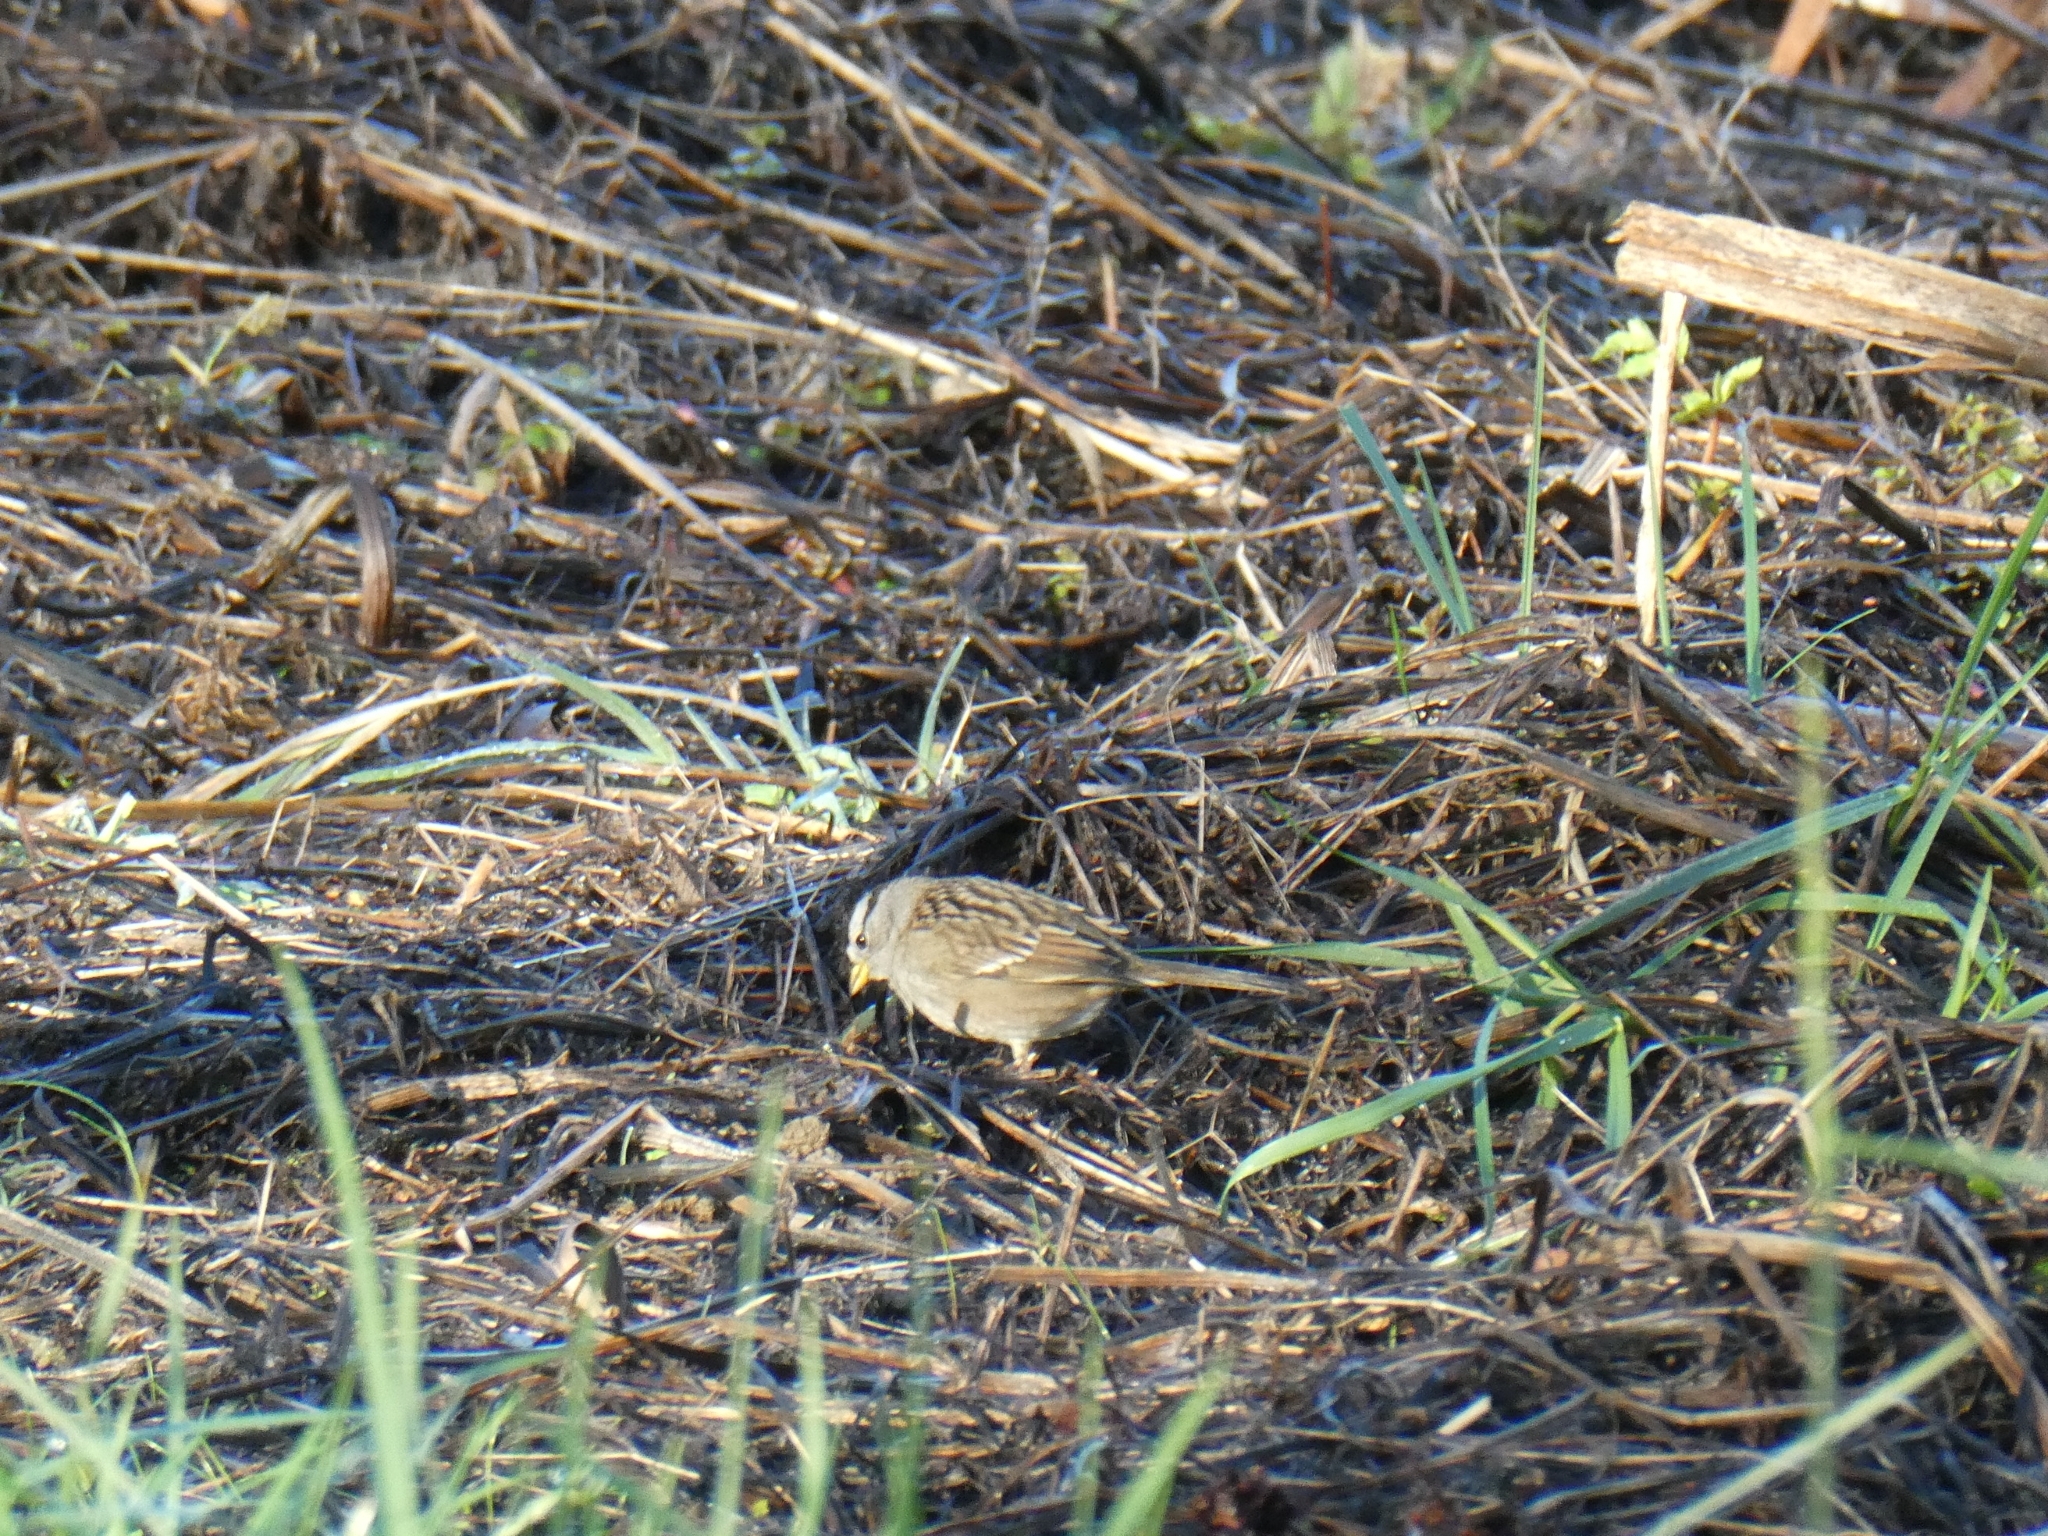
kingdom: Animalia
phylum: Chordata
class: Aves
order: Passeriformes
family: Passerellidae
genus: Zonotrichia
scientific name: Zonotrichia leucophrys
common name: White-crowned sparrow
